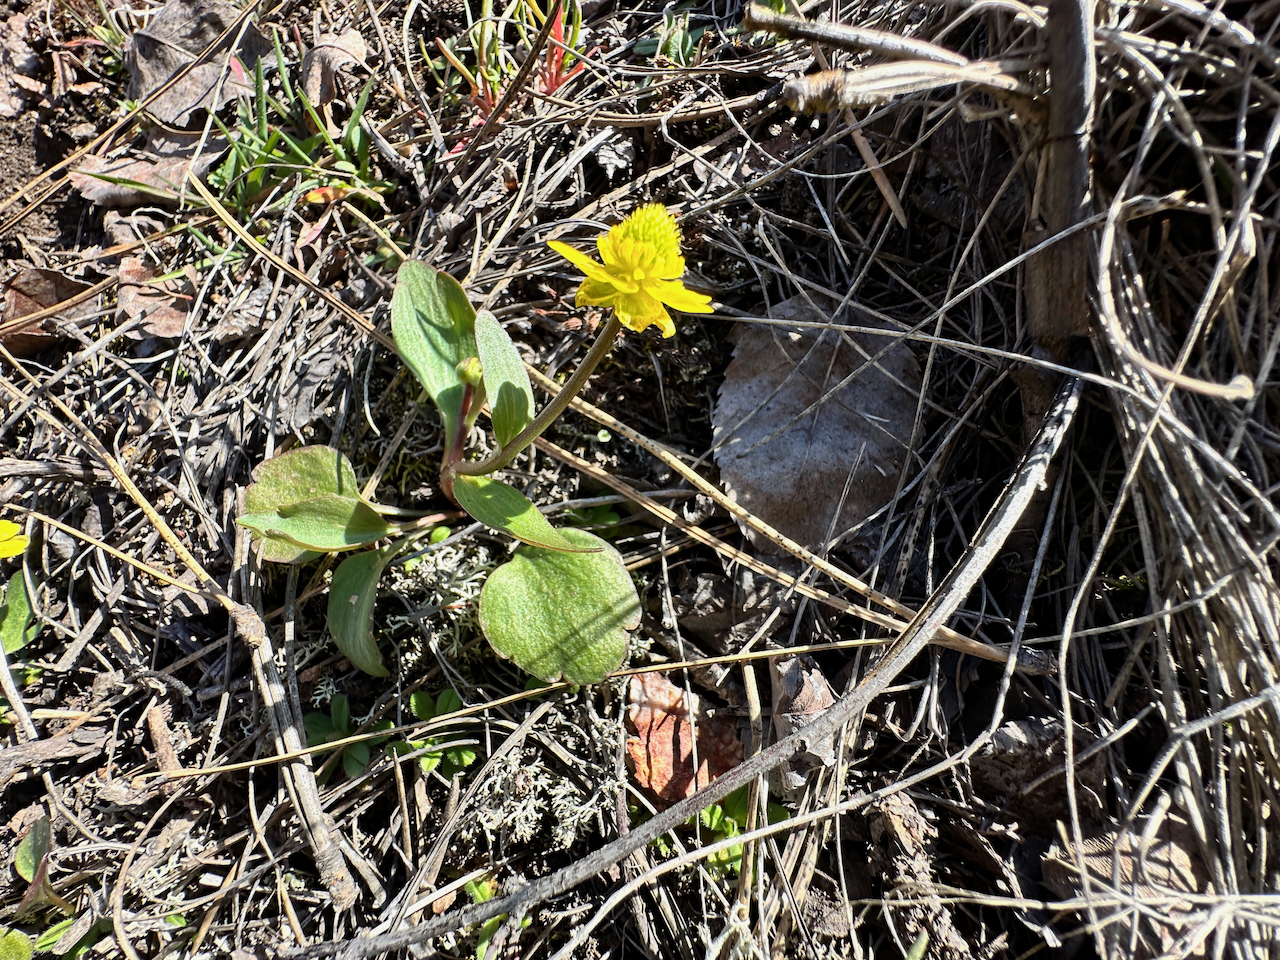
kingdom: Plantae
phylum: Tracheophyta
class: Magnoliopsida
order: Ranunculales
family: Ranunculaceae
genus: Ranunculus
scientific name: Ranunculus glaberrimus
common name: Sagebrush buttercup
